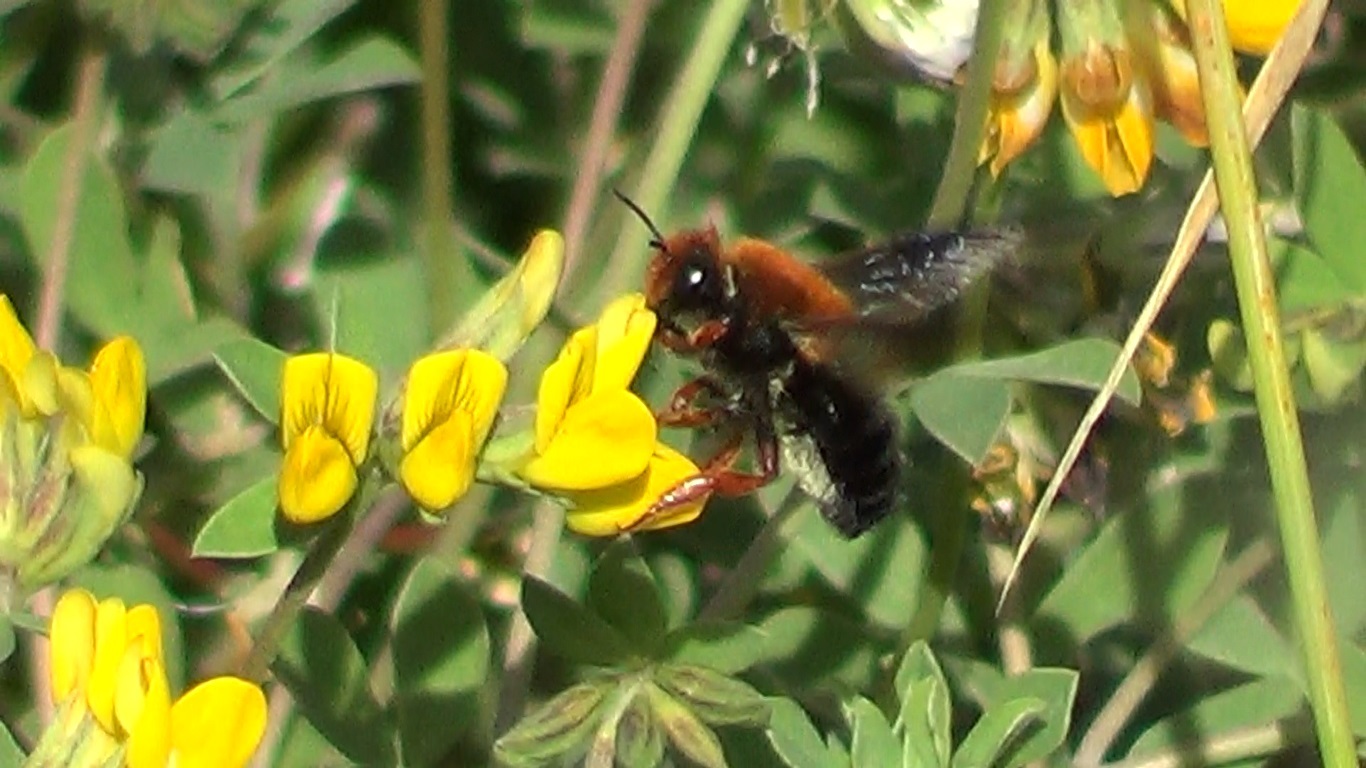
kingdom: Animalia
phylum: Arthropoda
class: Insecta
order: Hymenoptera
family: Megachilidae
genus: Megachile
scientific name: Megachile sicula
